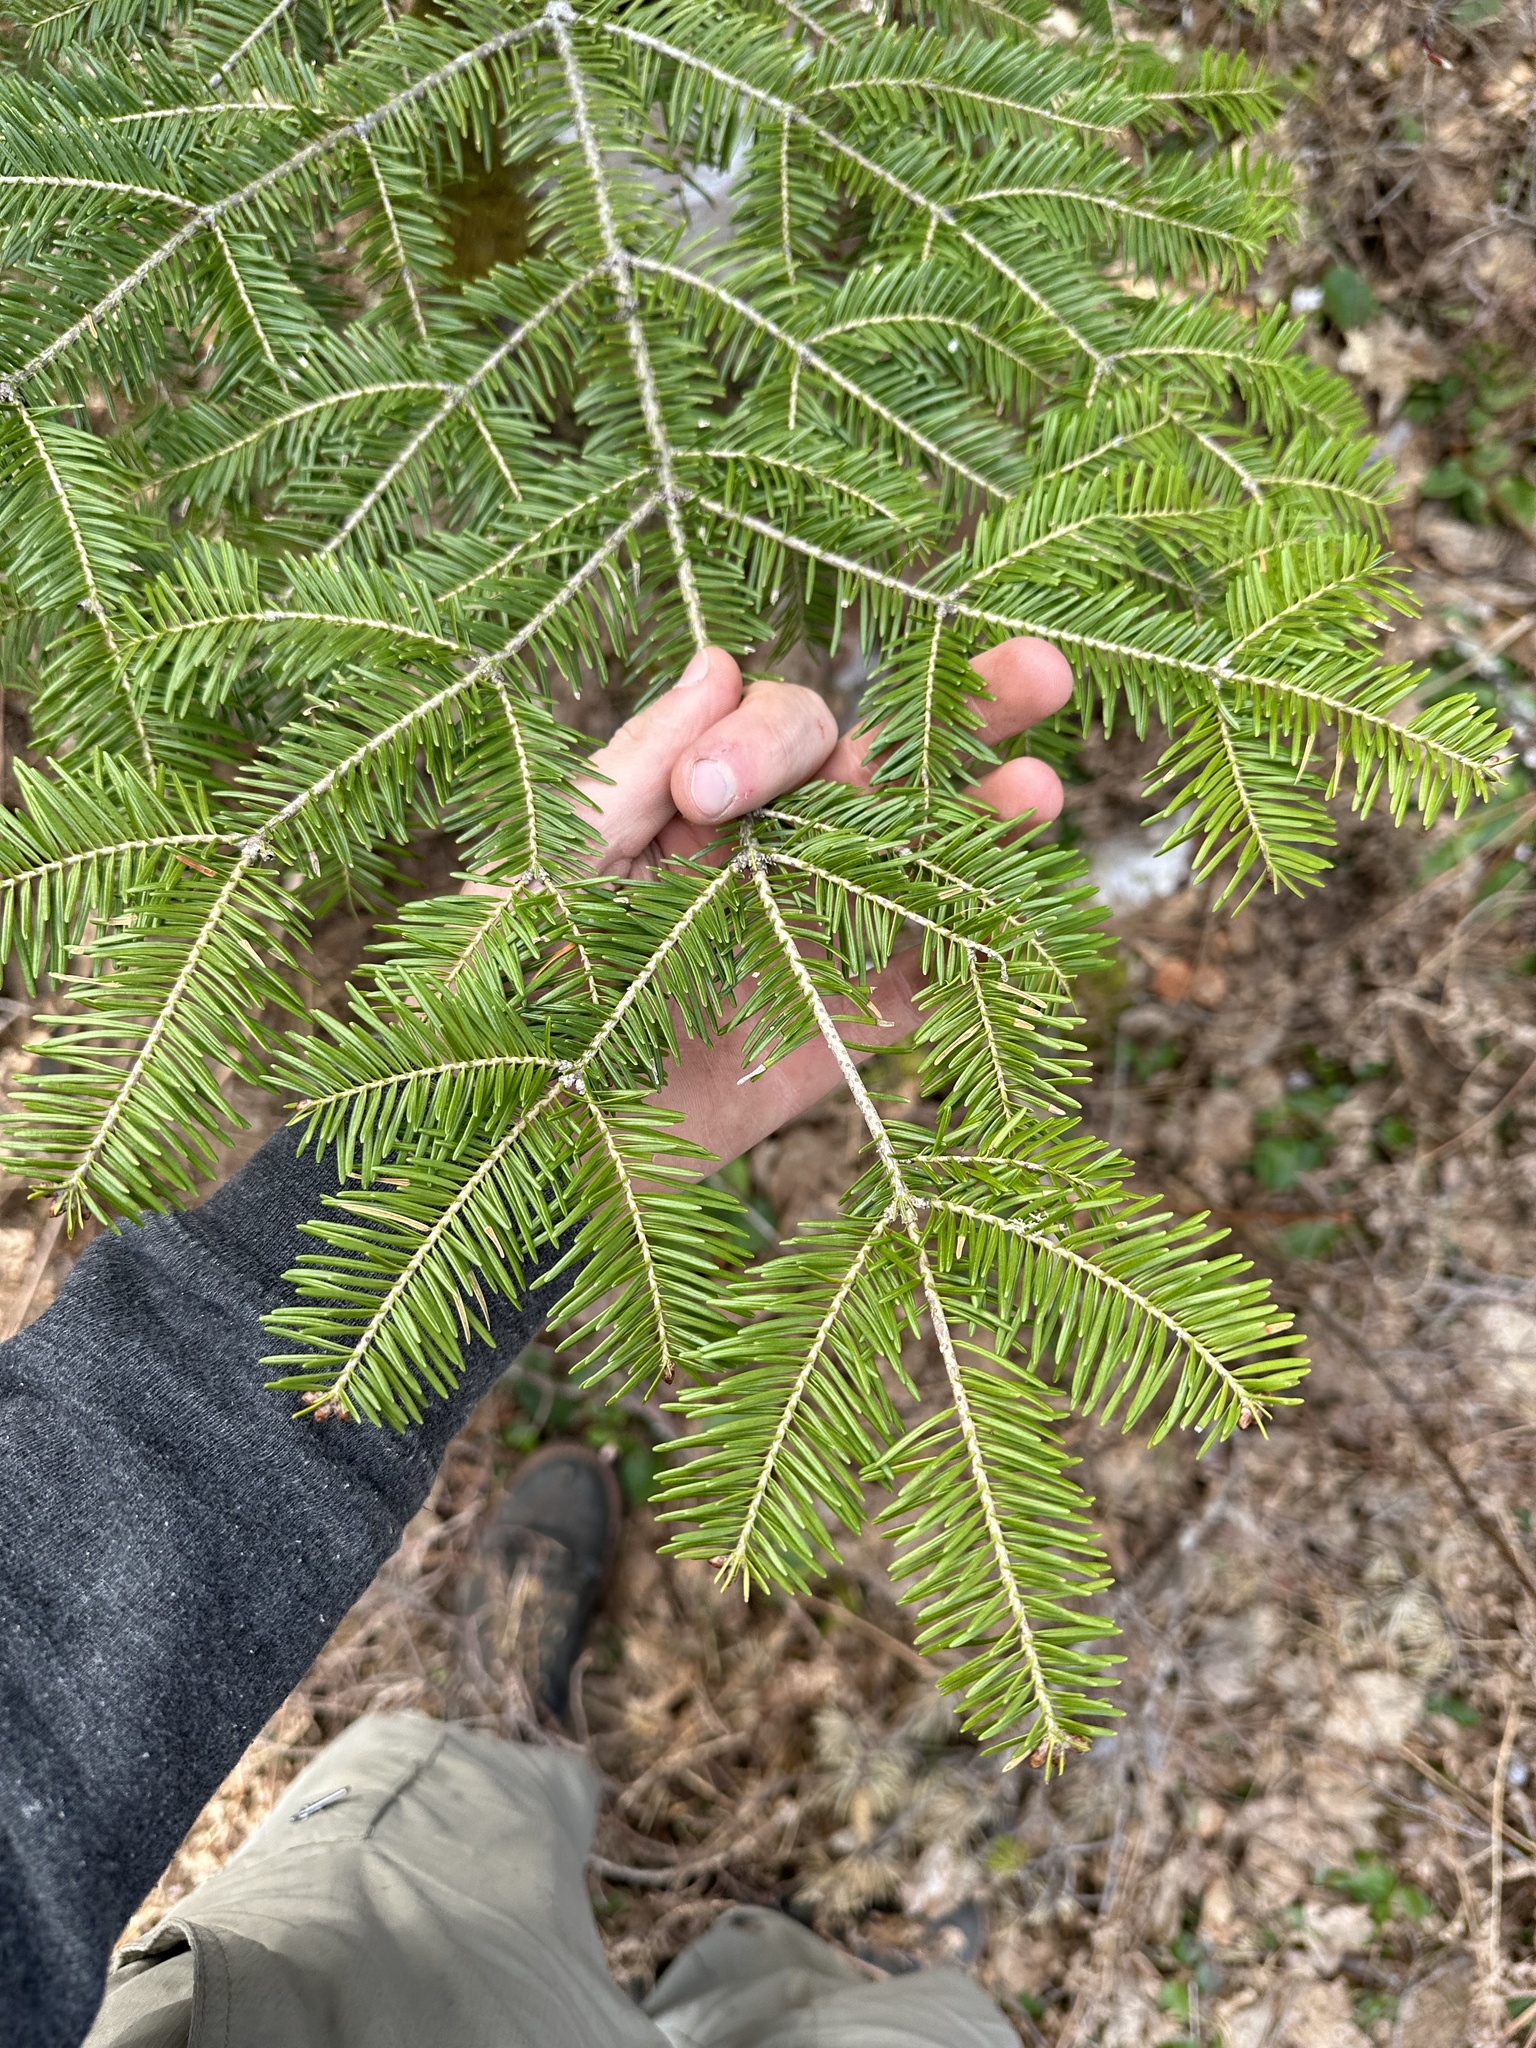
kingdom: Plantae
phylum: Tracheophyta
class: Pinopsida
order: Pinales
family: Pinaceae
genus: Abies
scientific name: Abies balsamea
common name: Balsam fir
